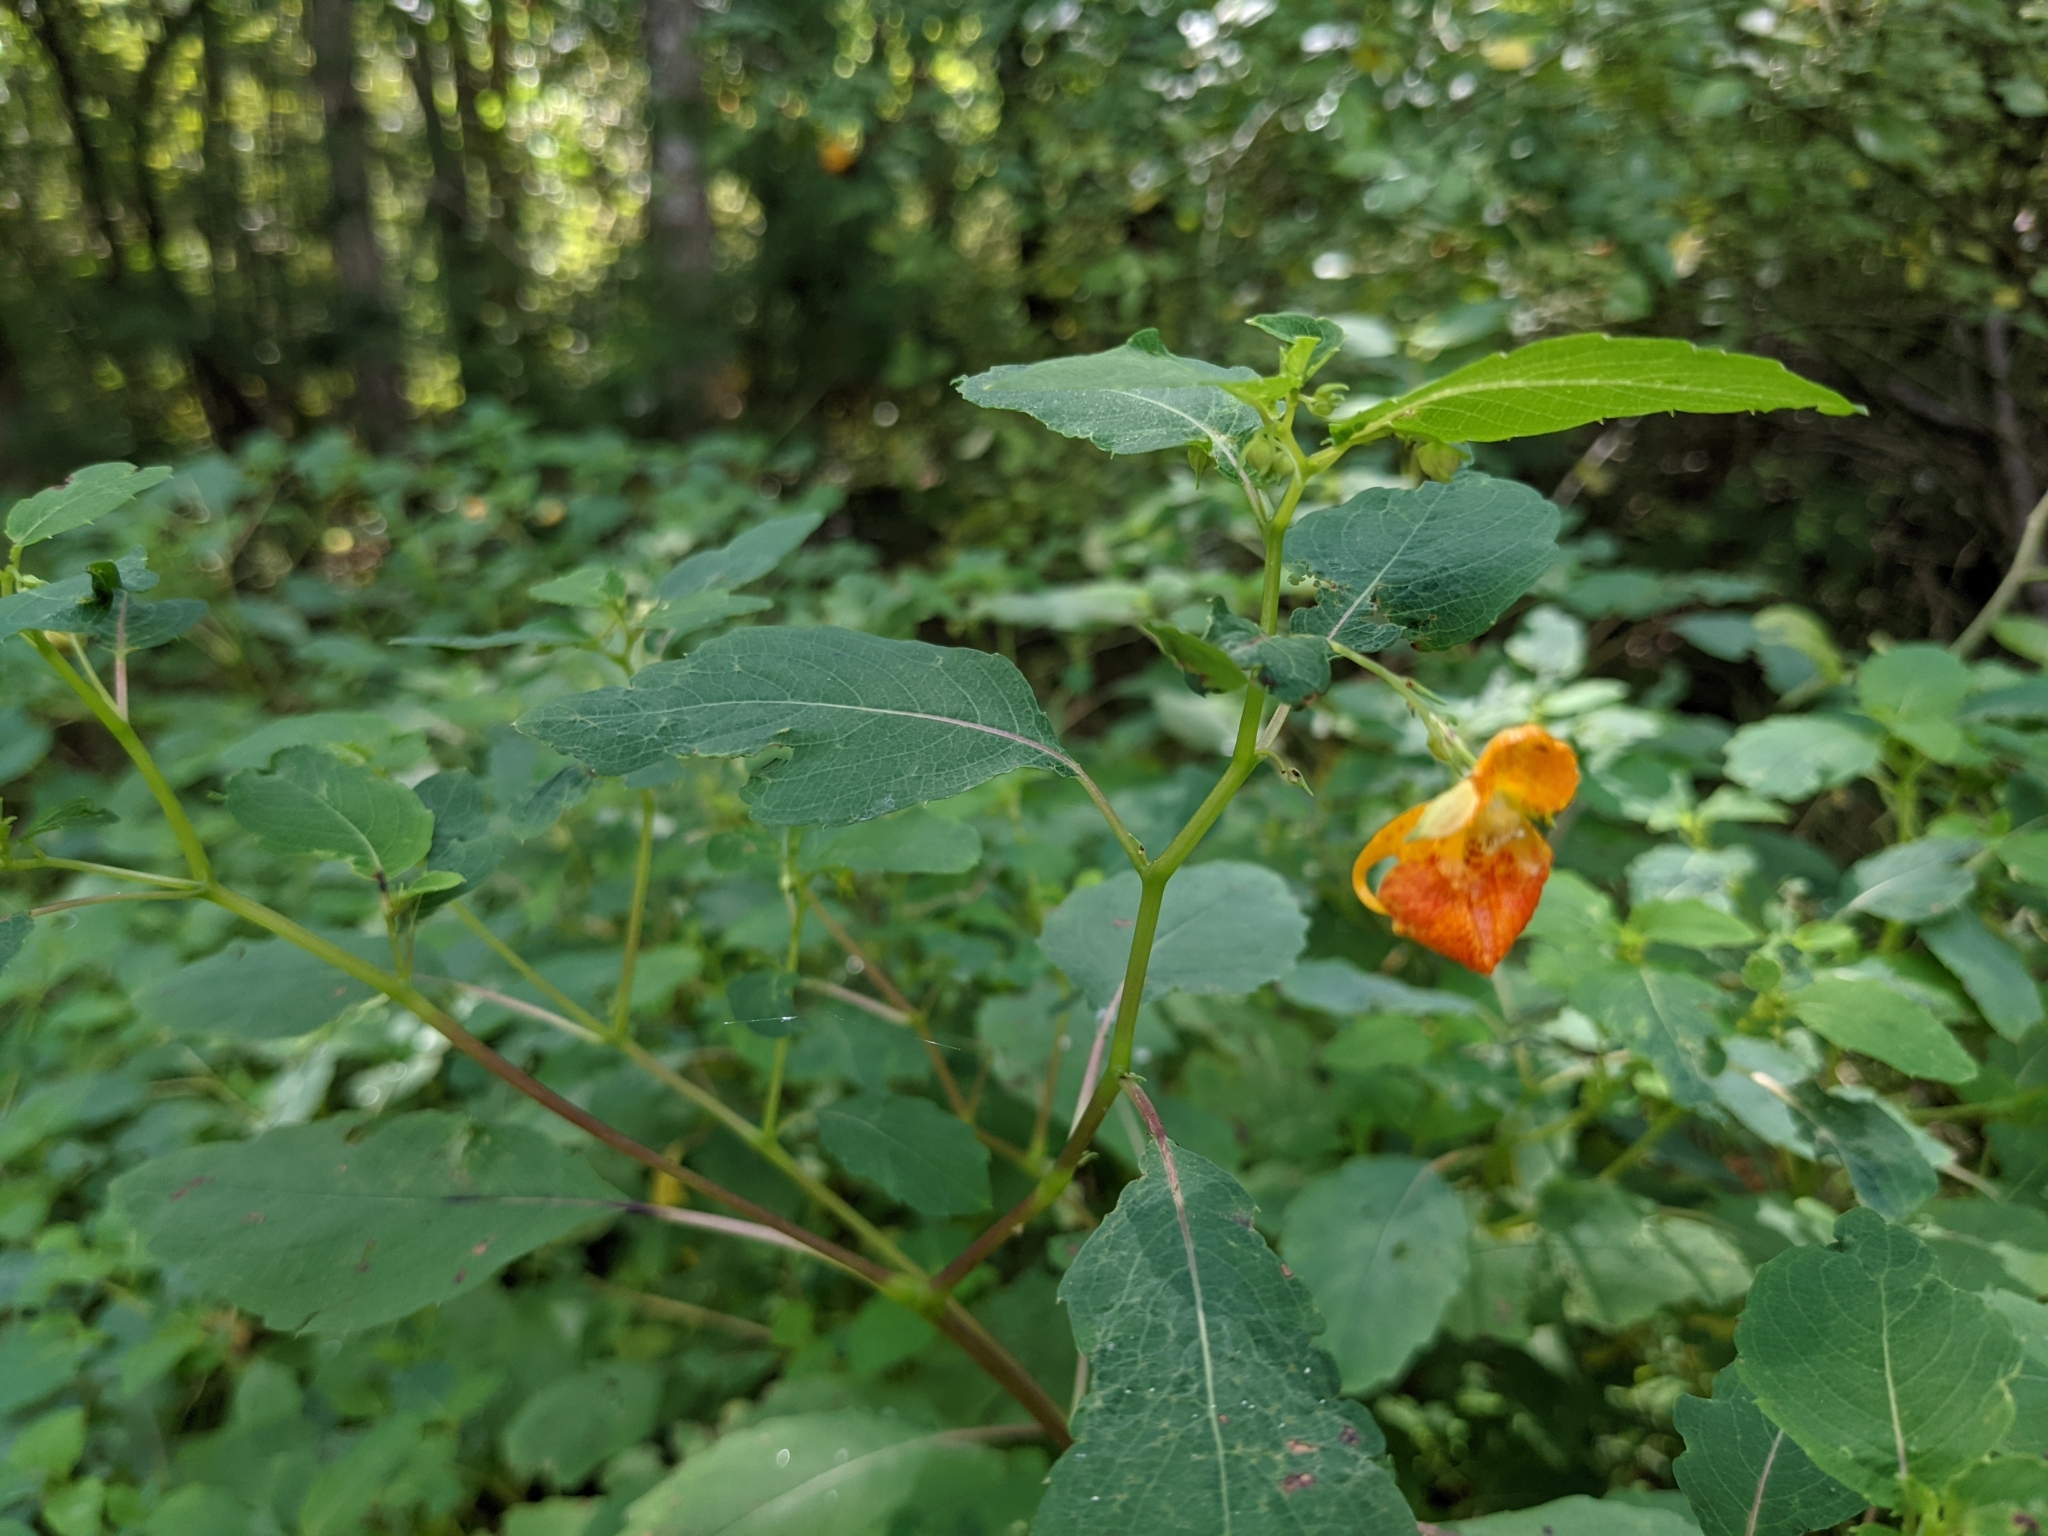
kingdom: Plantae
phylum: Tracheophyta
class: Magnoliopsida
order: Ericales
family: Balsaminaceae
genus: Impatiens
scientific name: Impatiens capensis
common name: Orange balsam
